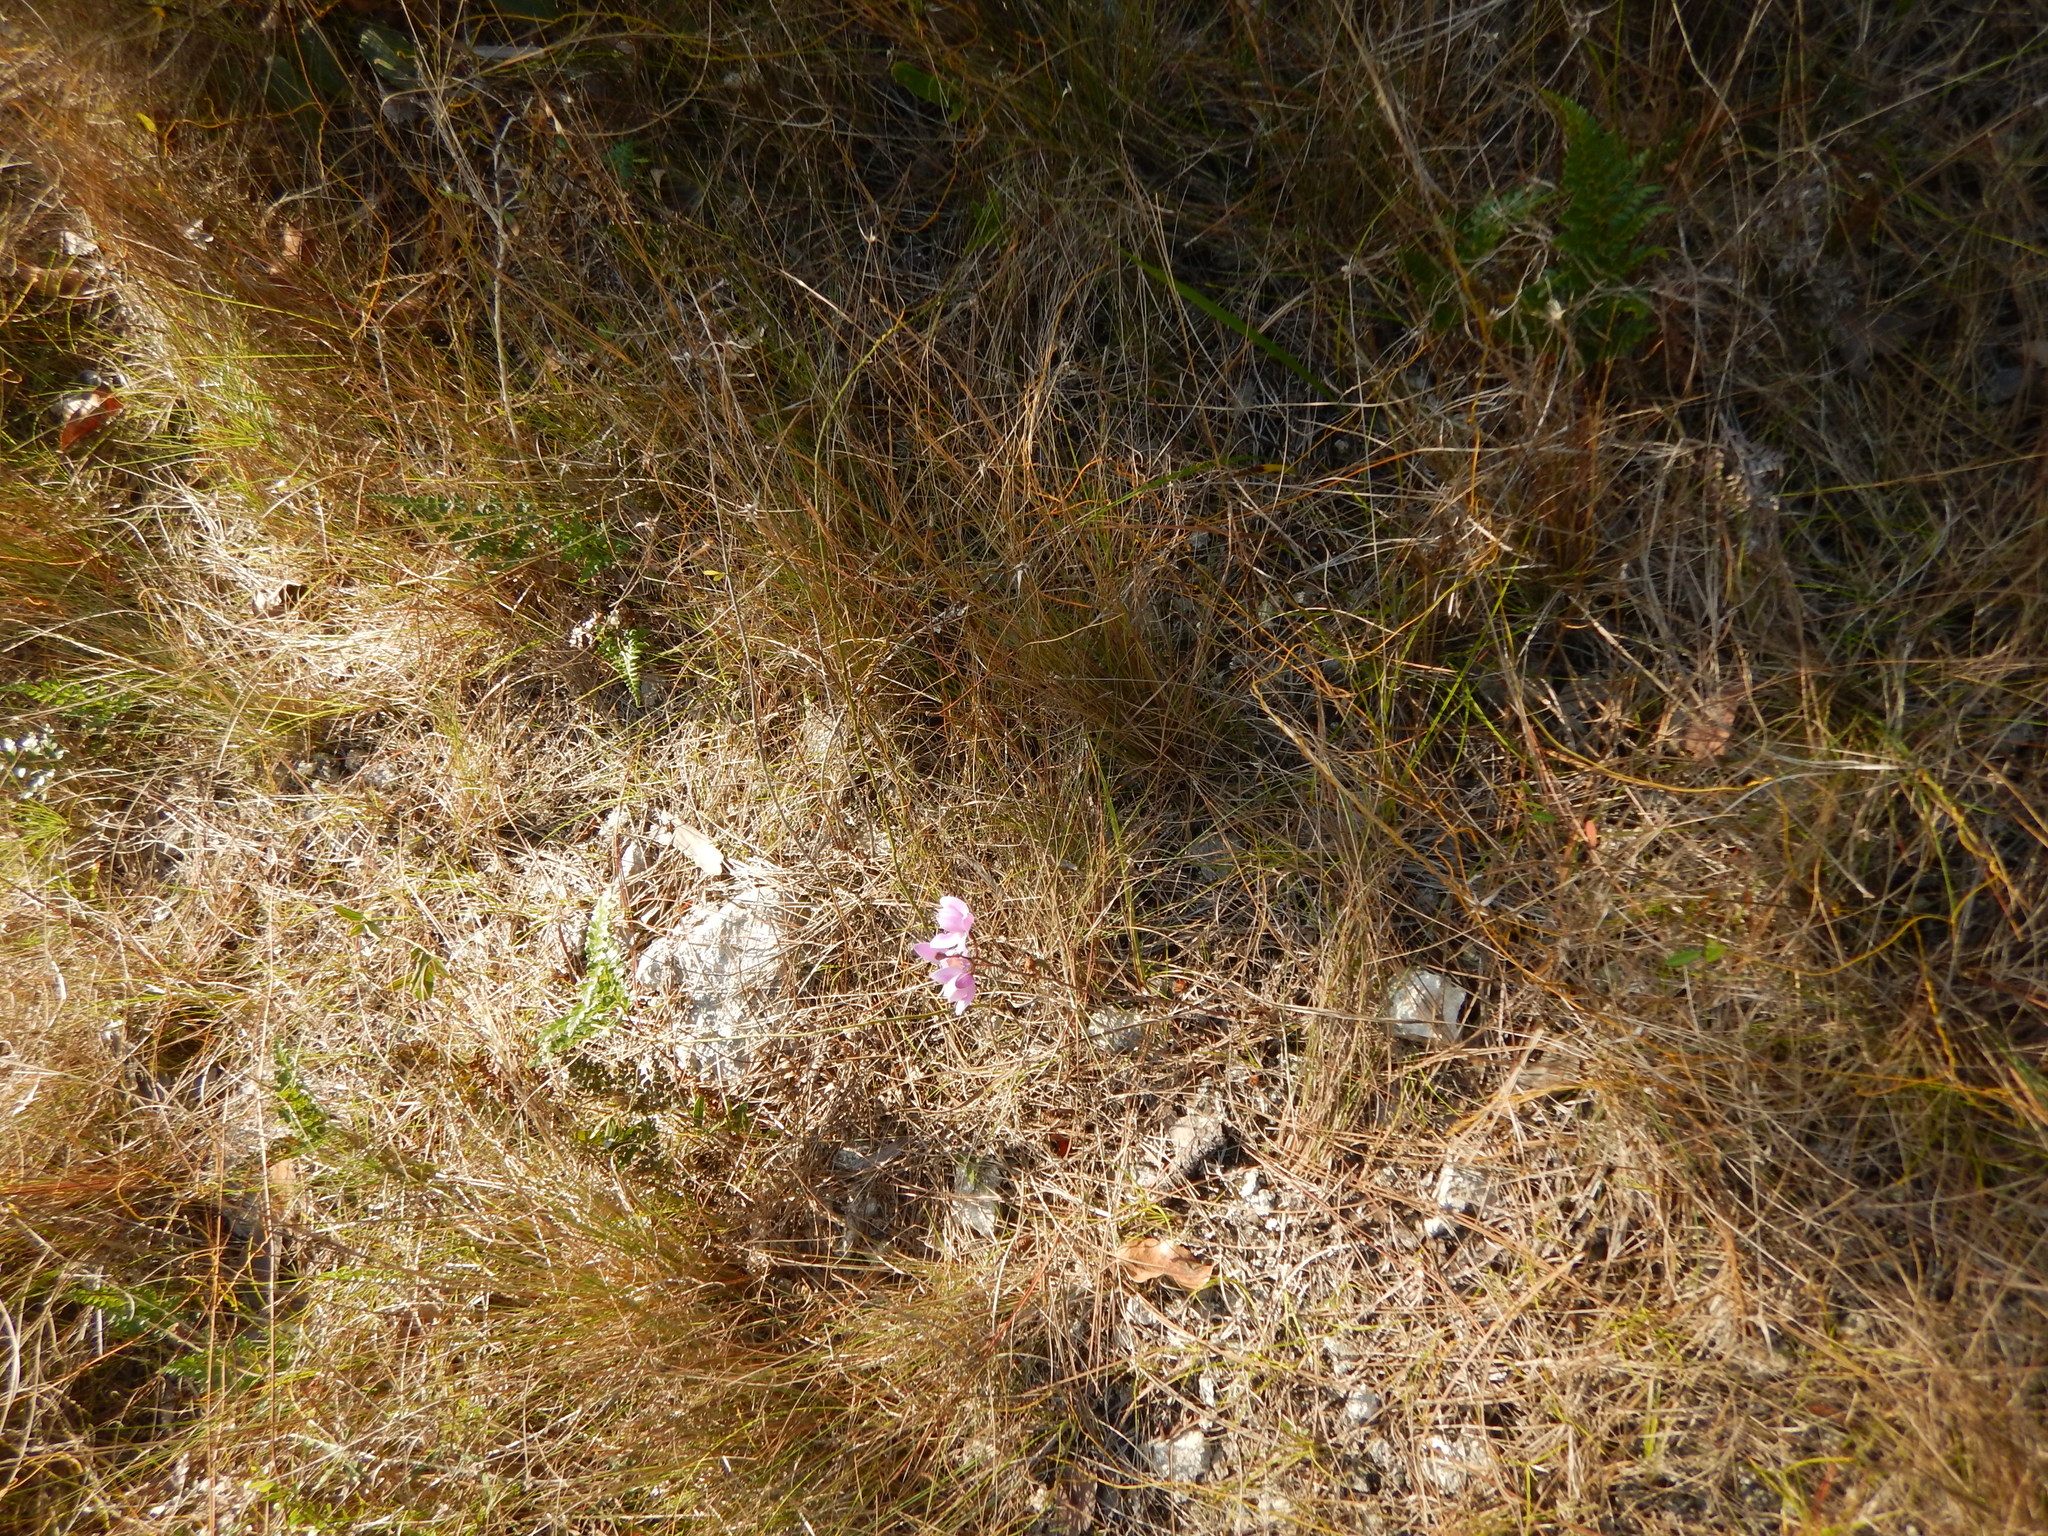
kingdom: Plantae
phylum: Tracheophyta
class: Liliopsida
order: Asparagales
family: Orchidaceae
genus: Bletia
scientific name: Bletia purpurea
